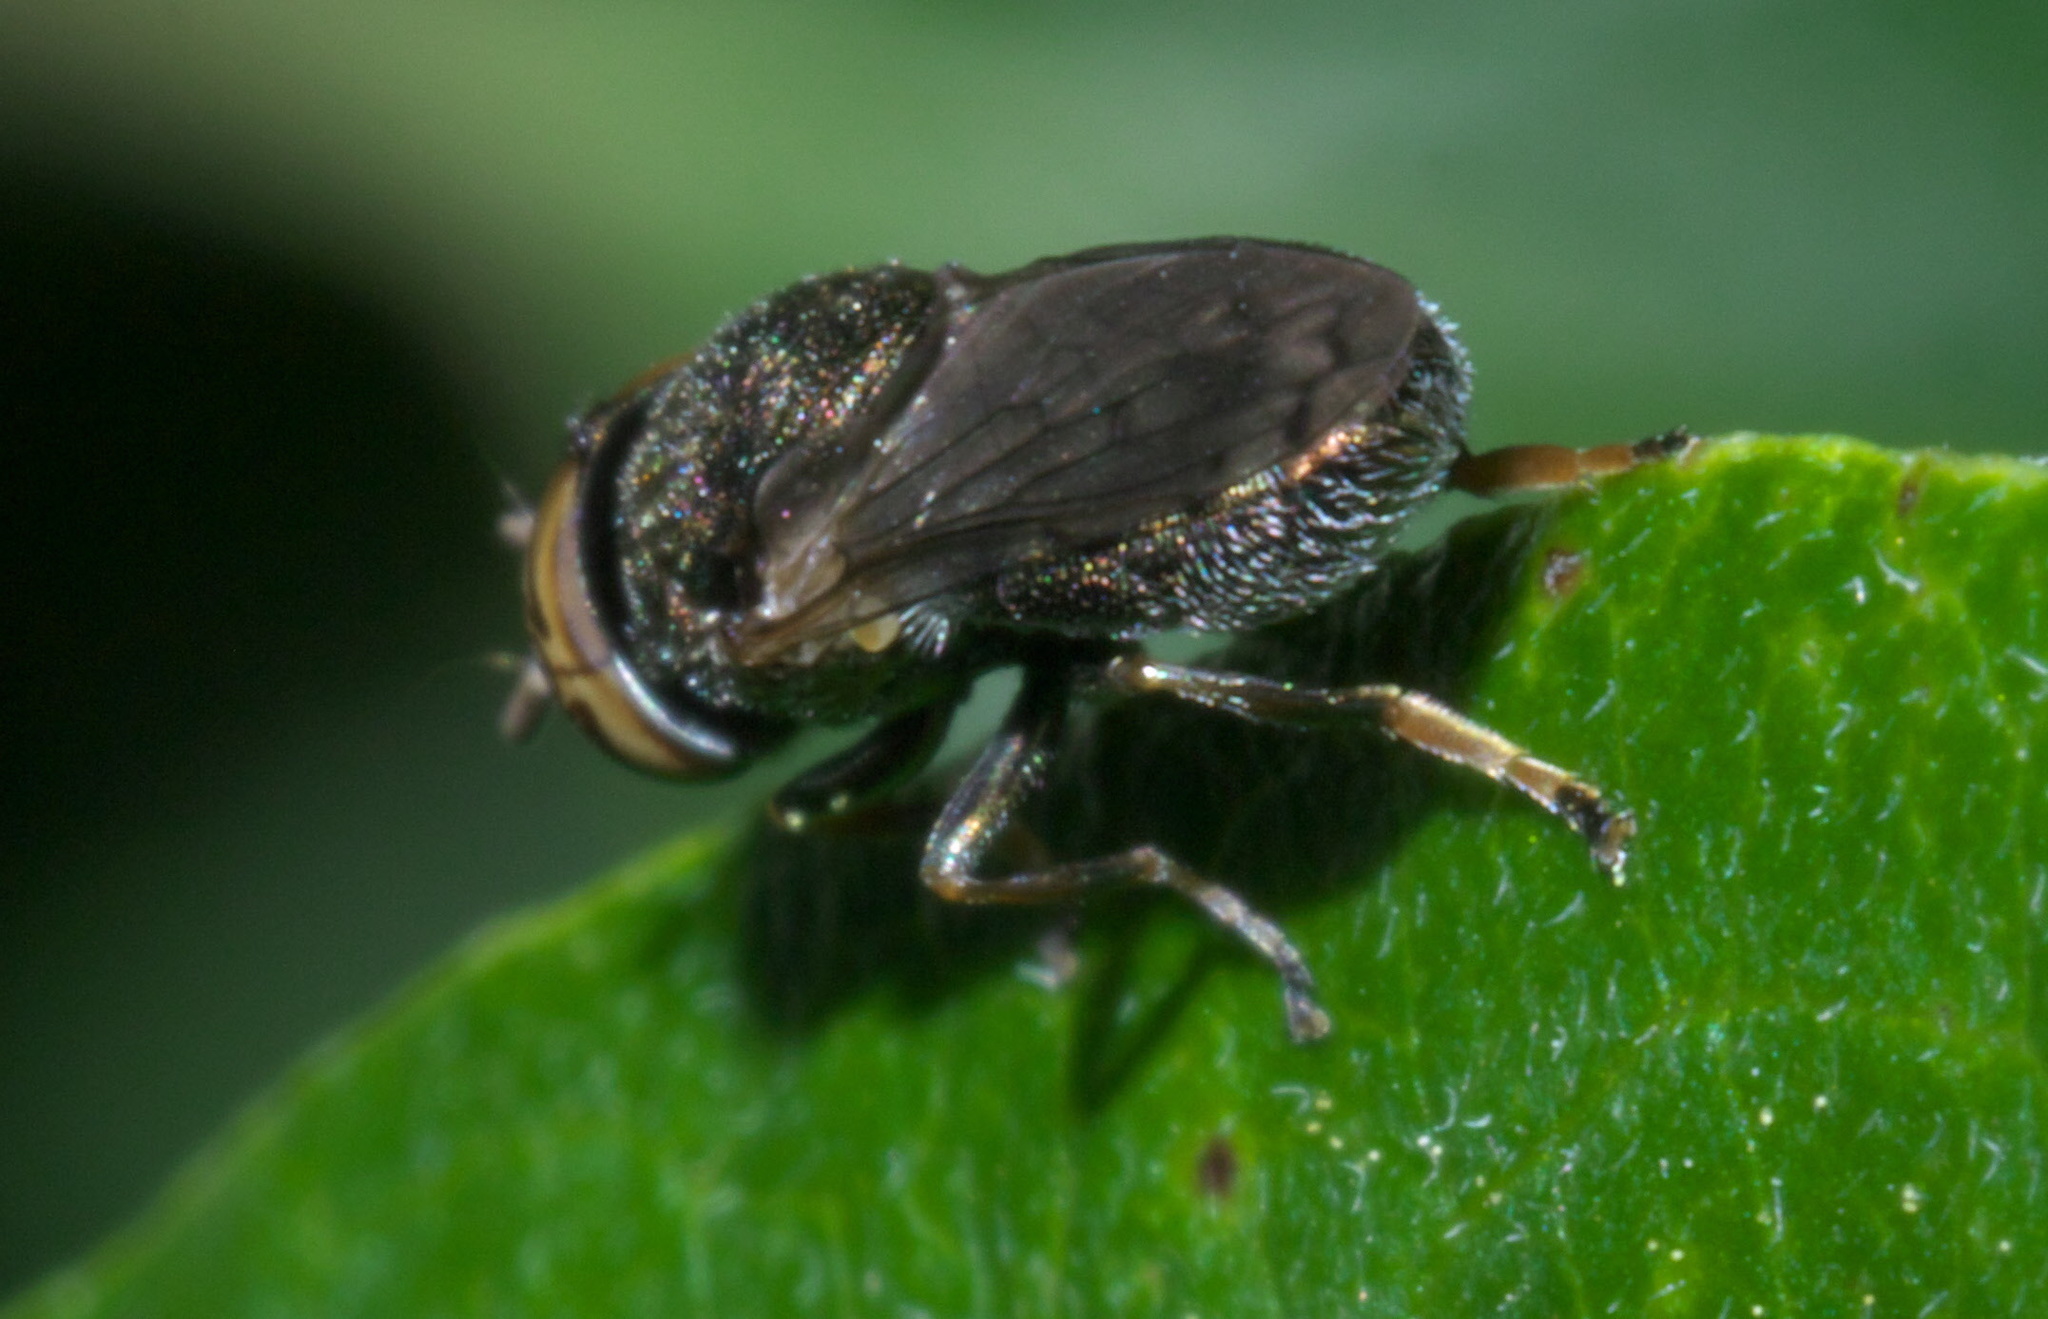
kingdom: Animalia
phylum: Arthropoda
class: Insecta
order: Diptera
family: Syrphidae
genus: Orthonevra
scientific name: Orthonevra nitida
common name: Wavy mucksucker
